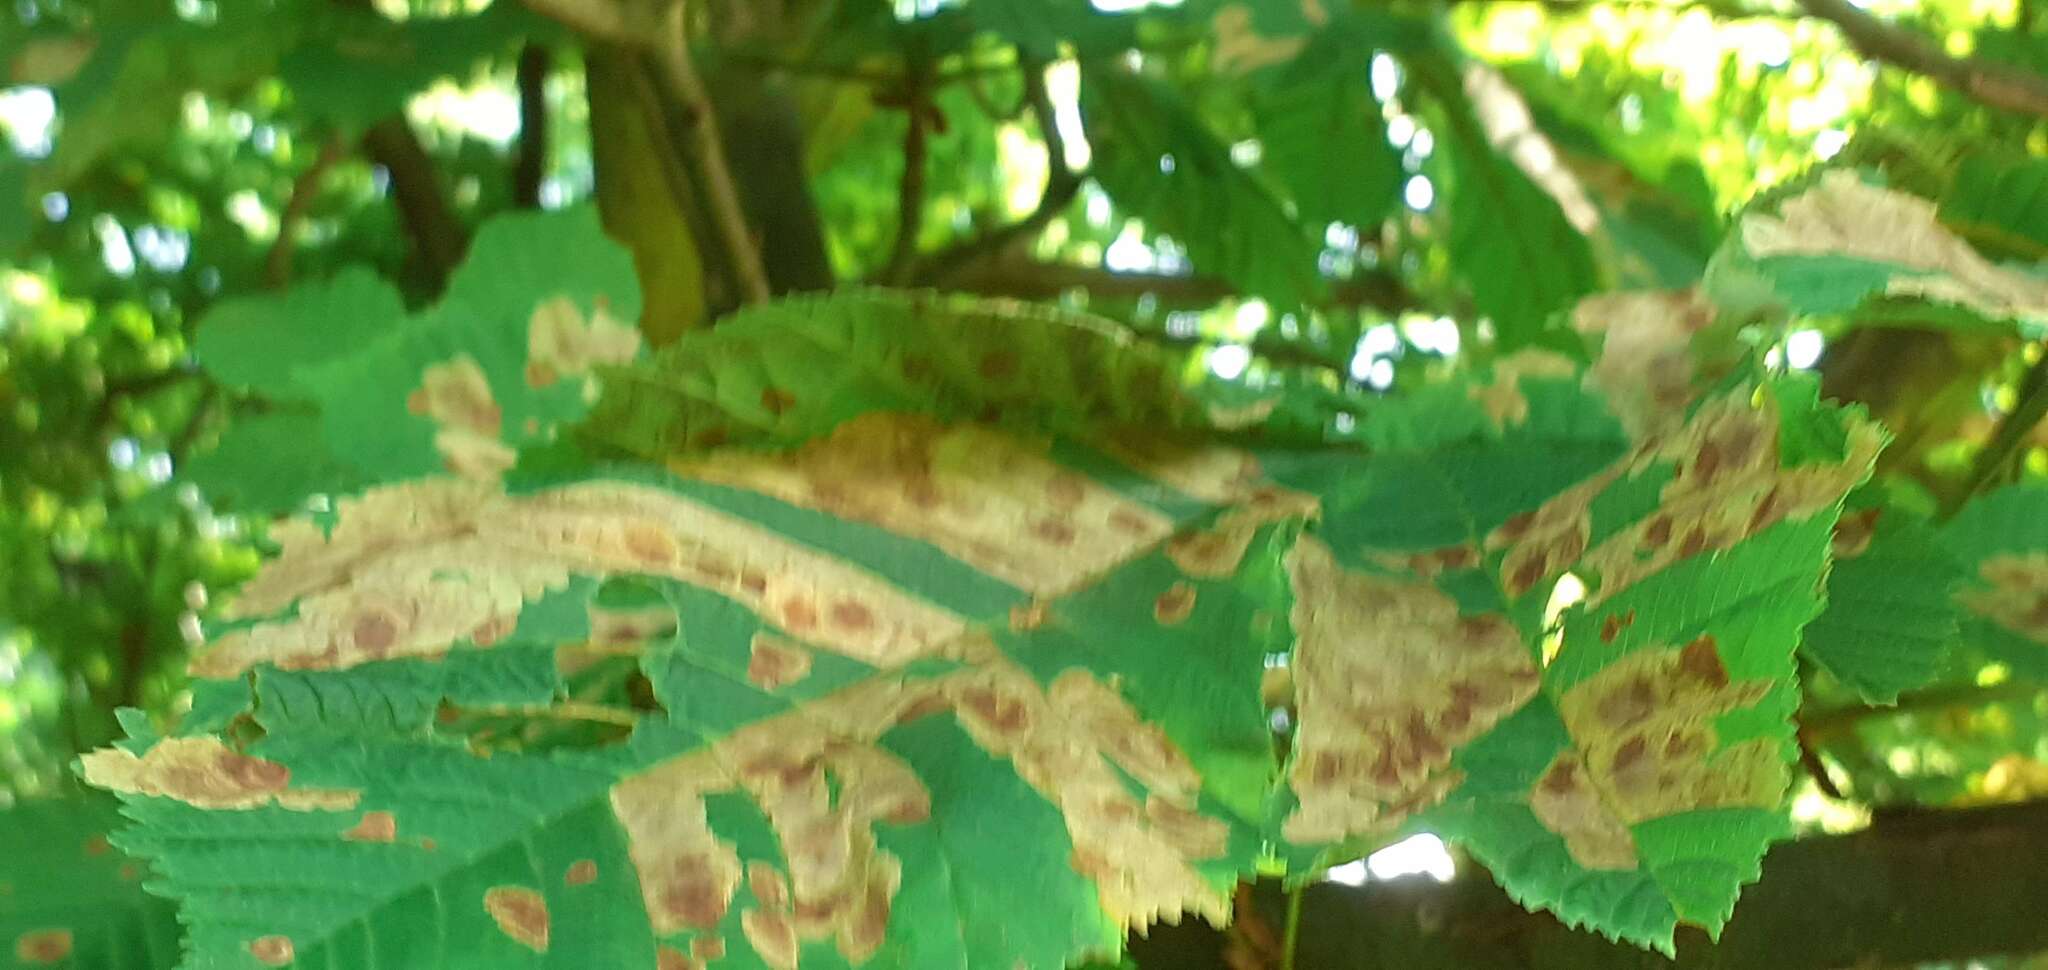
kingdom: Animalia
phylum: Arthropoda
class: Insecta
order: Lepidoptera
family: Gracillariidae
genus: Cameraria
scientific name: Cameraria ohridella
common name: Horse-chestnut leaf-miner
